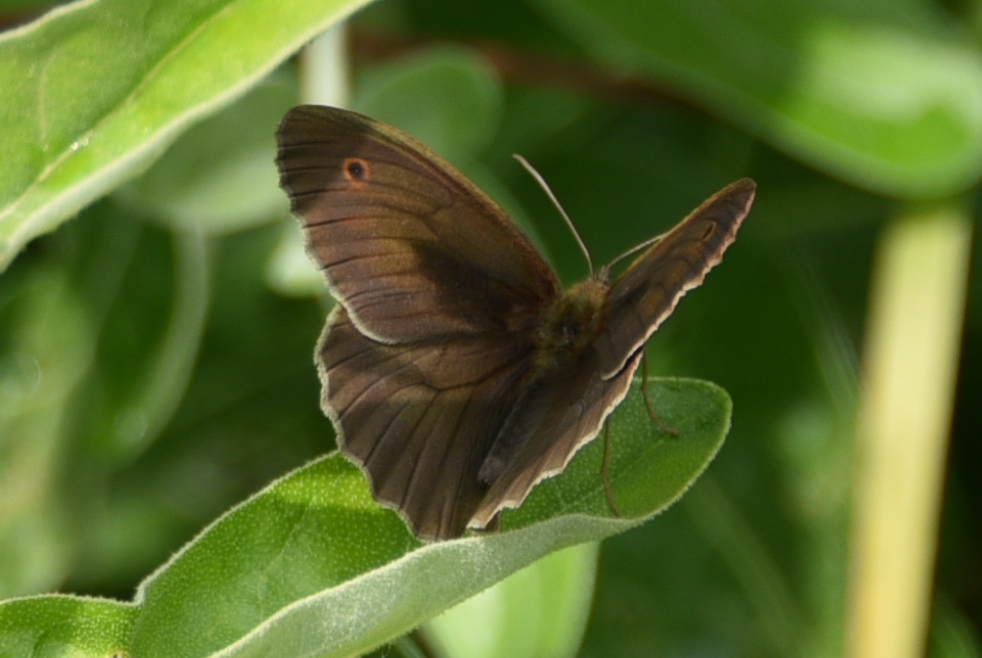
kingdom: Animalia
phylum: Arthropoda
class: Insecta
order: Lepidoptera
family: Nymphalidae
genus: Maniola
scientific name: Maniola jurtina
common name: Meadow brown
